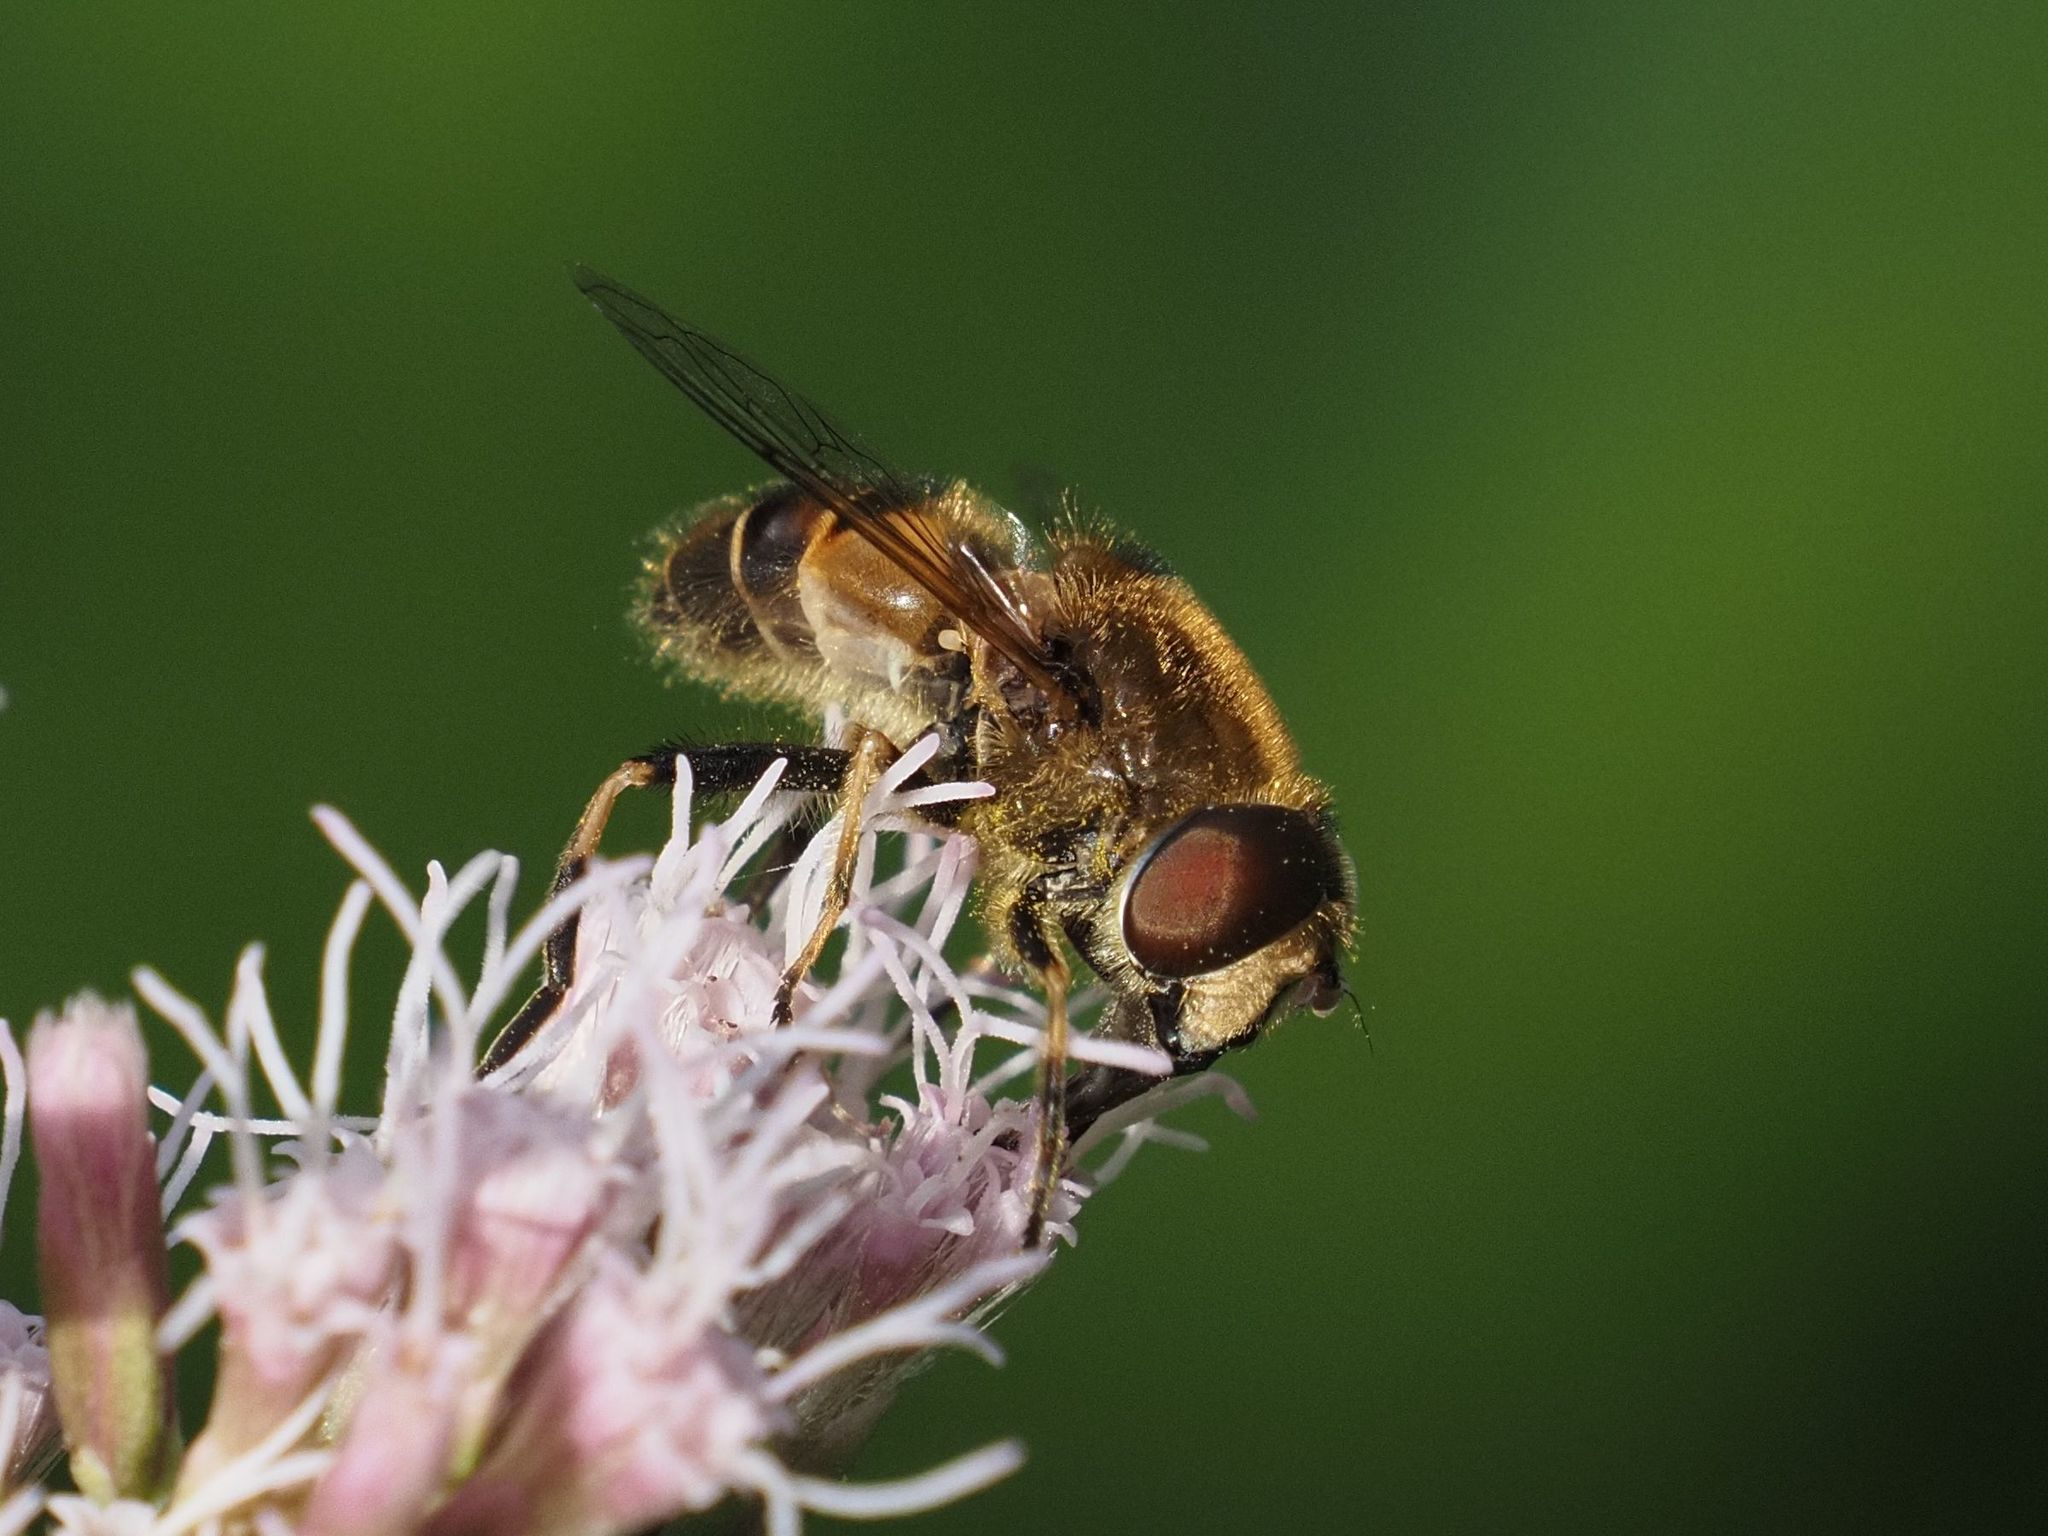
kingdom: Animalia
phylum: Arthropoda
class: Insecta
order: Diptera
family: Syrphidae
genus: Eristalis
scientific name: Eristalis nemorum
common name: Orange-spined drone fly
